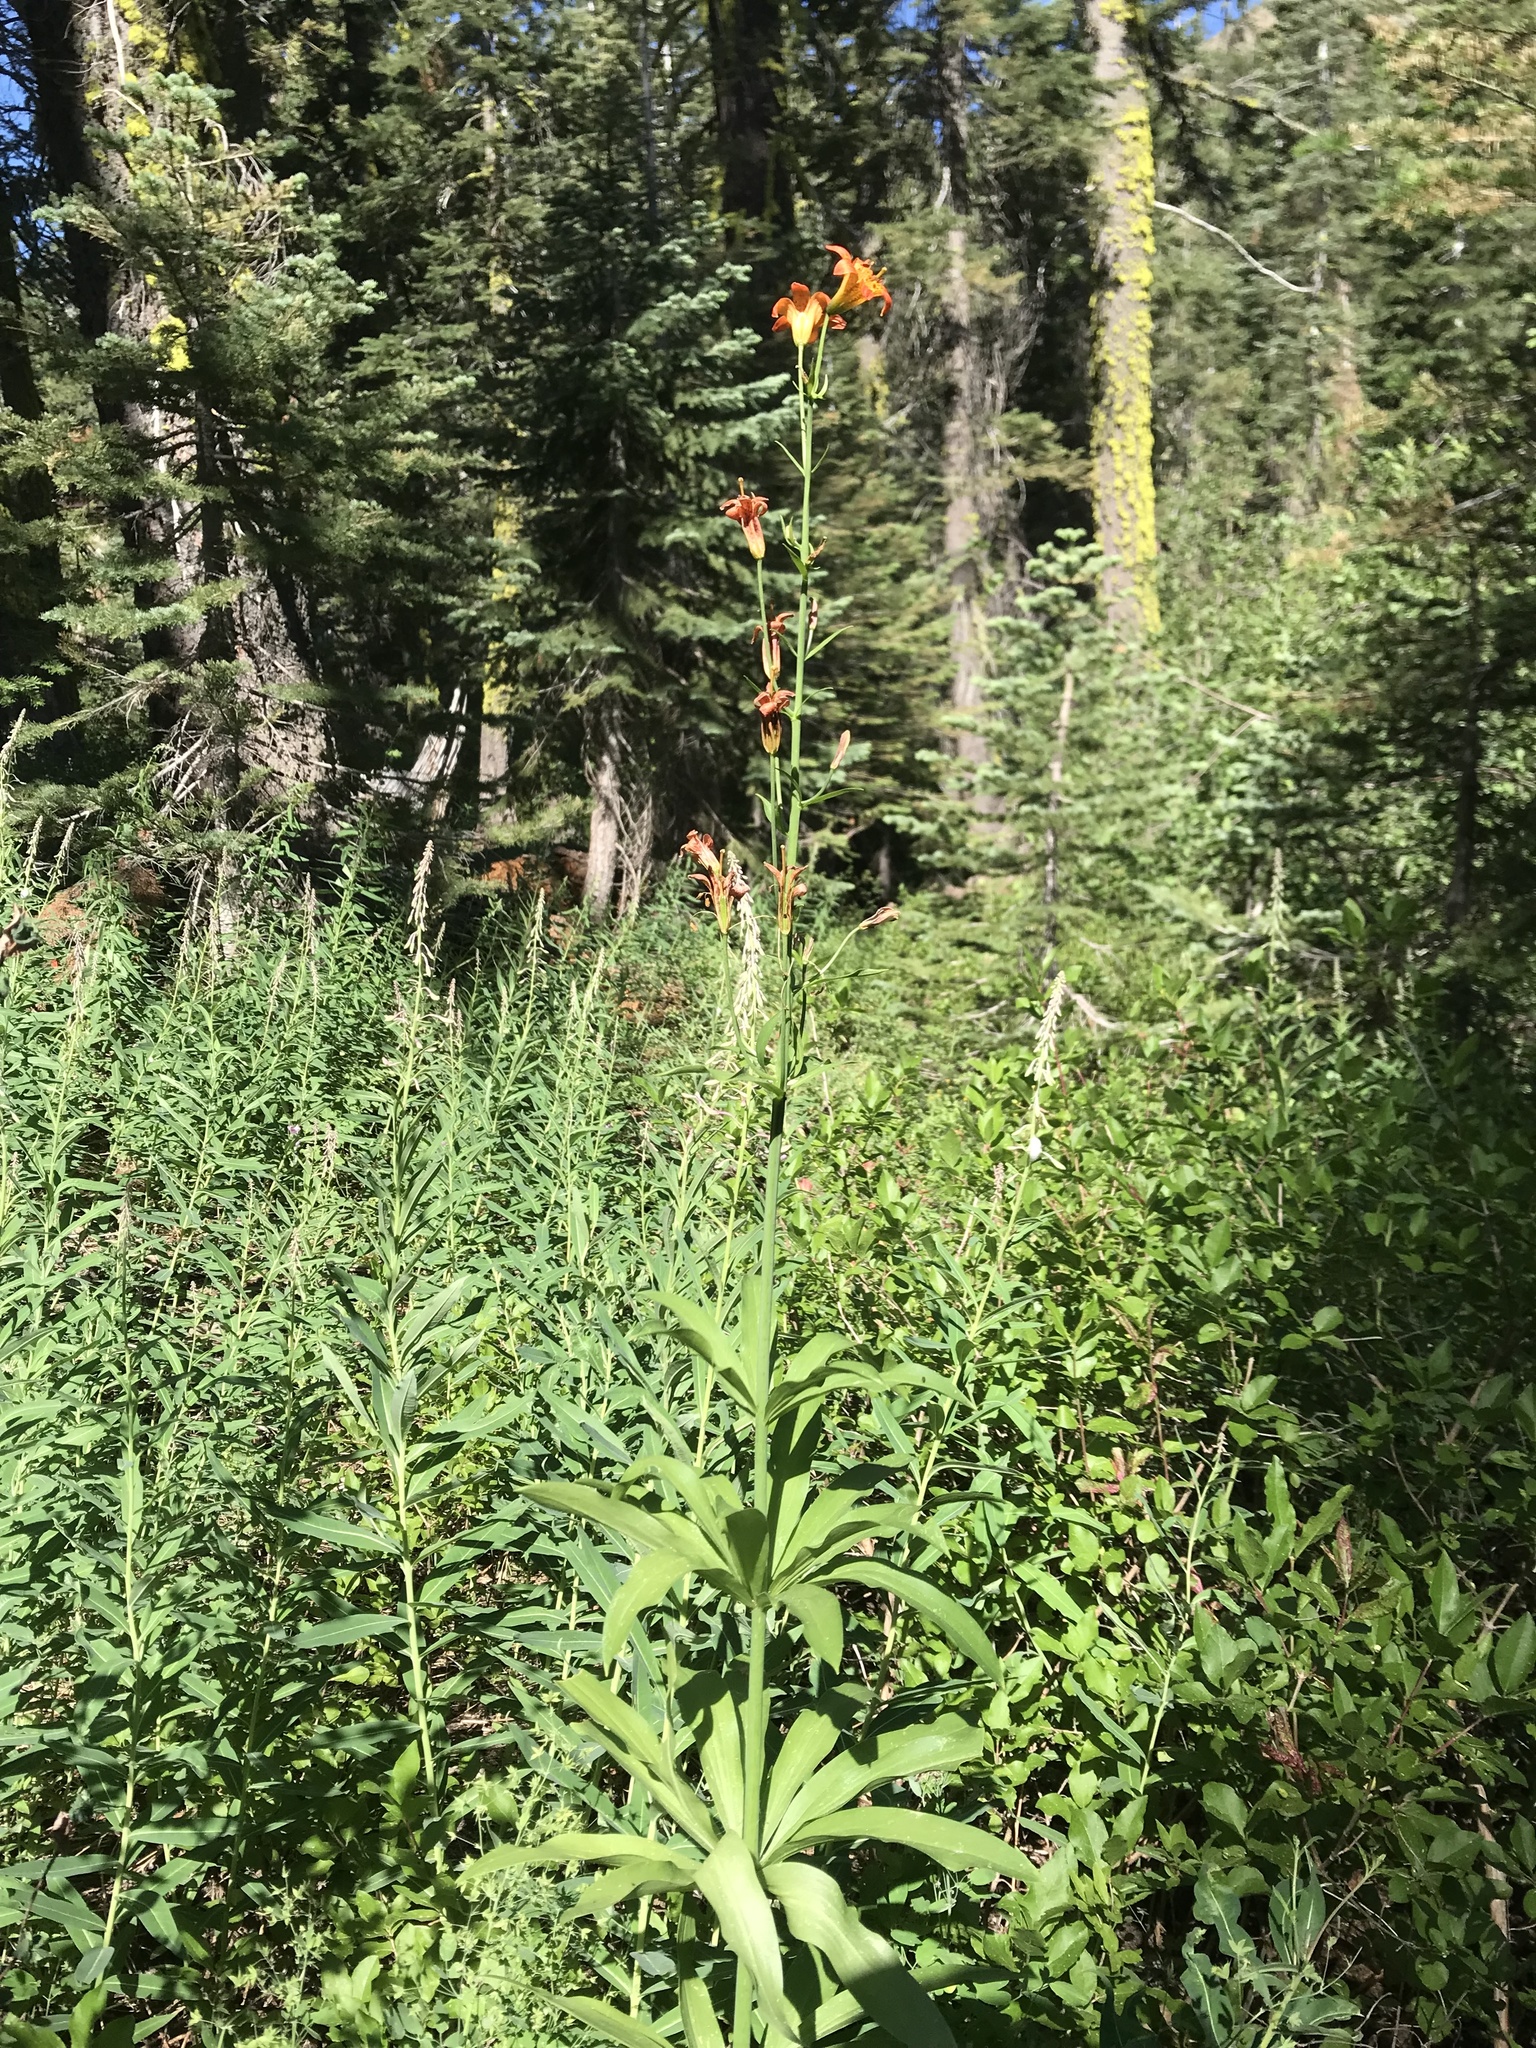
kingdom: Plantae
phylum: Tracheophyta
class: Liliopsida
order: Liliales
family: Liliaceae
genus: Lilium
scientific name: Lilium parvum
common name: Alpine lily
